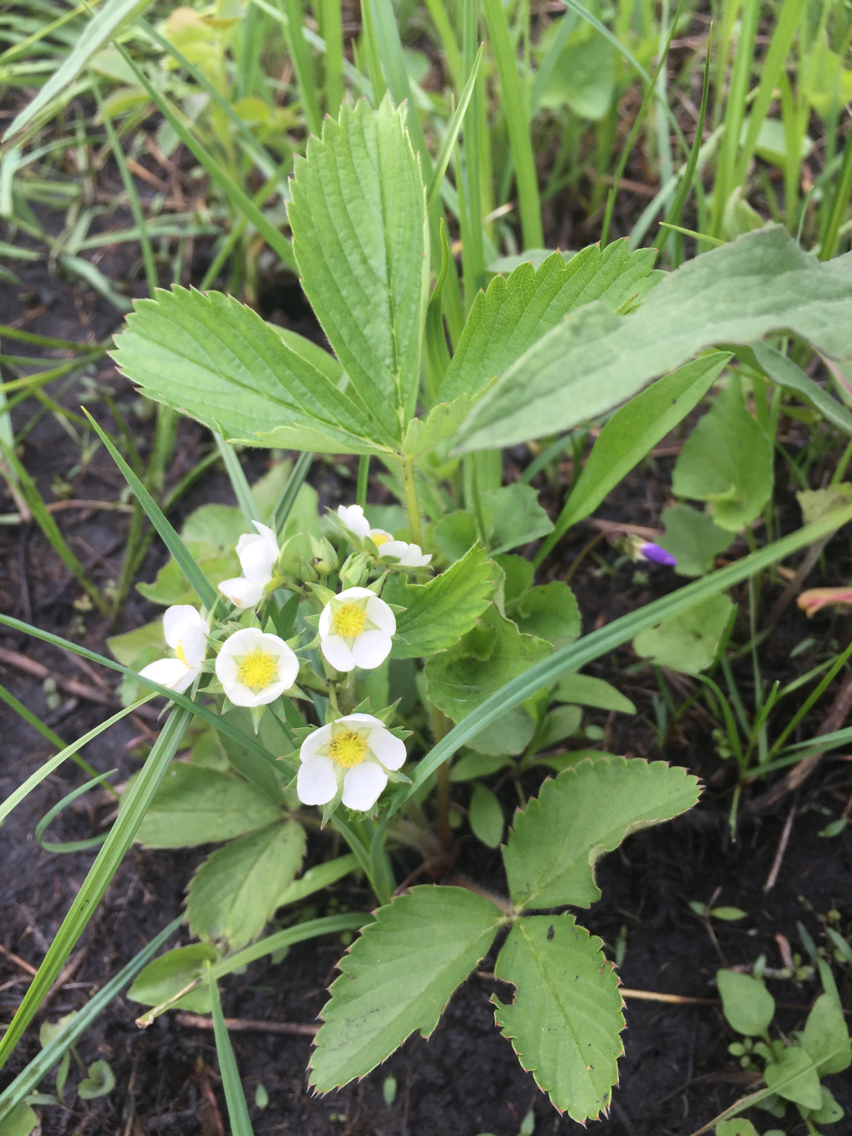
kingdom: Plantae
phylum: Tracheophyta
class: Magnoliopsida
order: Rosales
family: Rosaceae
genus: Fragaria
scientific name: Fragaria virginiana
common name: Thickleaved wild strawberry
